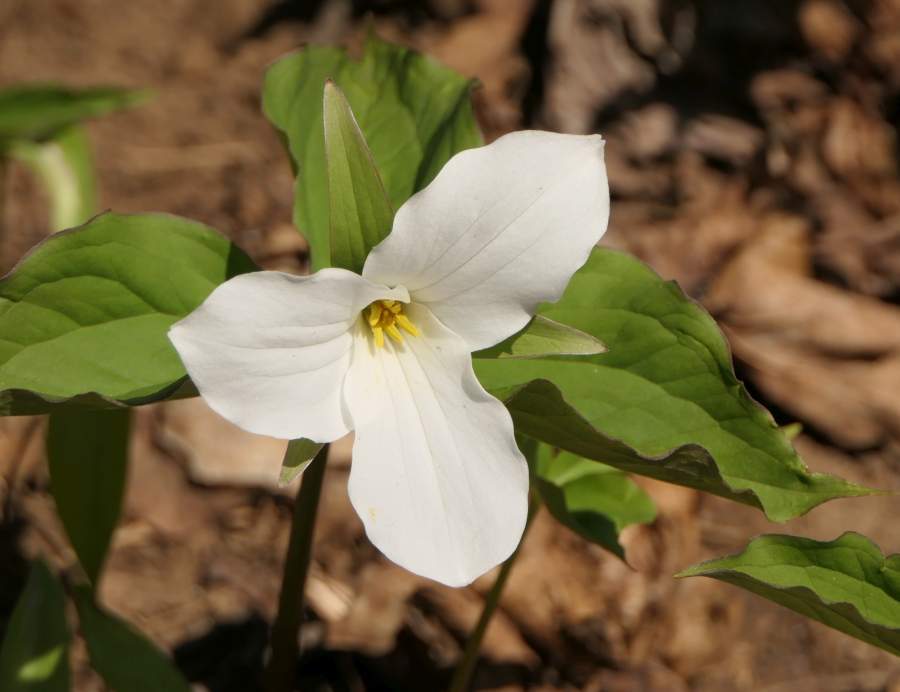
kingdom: Plantae
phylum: Tracheophyta
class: Liliopsida
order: Liliales
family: Melanthiaceae
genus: Trillium
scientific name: Trillium grandiflorum
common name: Great white trillium
